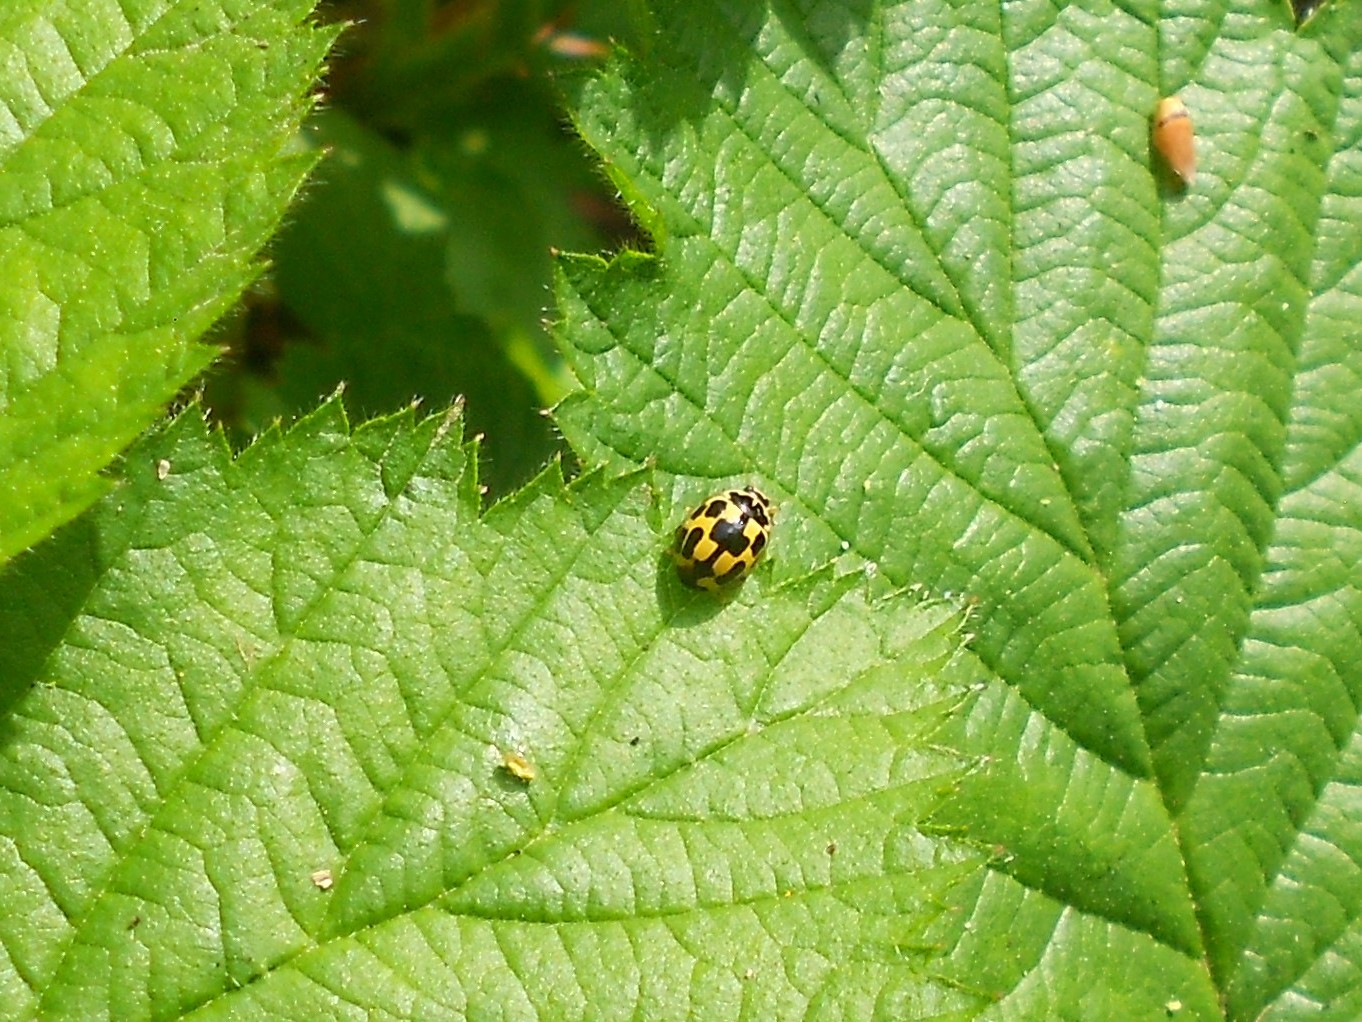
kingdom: Animalia
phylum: Arthropoda
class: Insecta
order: Coleoptera
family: Coccinellidae
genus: Propylaea
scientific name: Propylaea quatuordecimpunctata
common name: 14-spotted ladybird beetle
